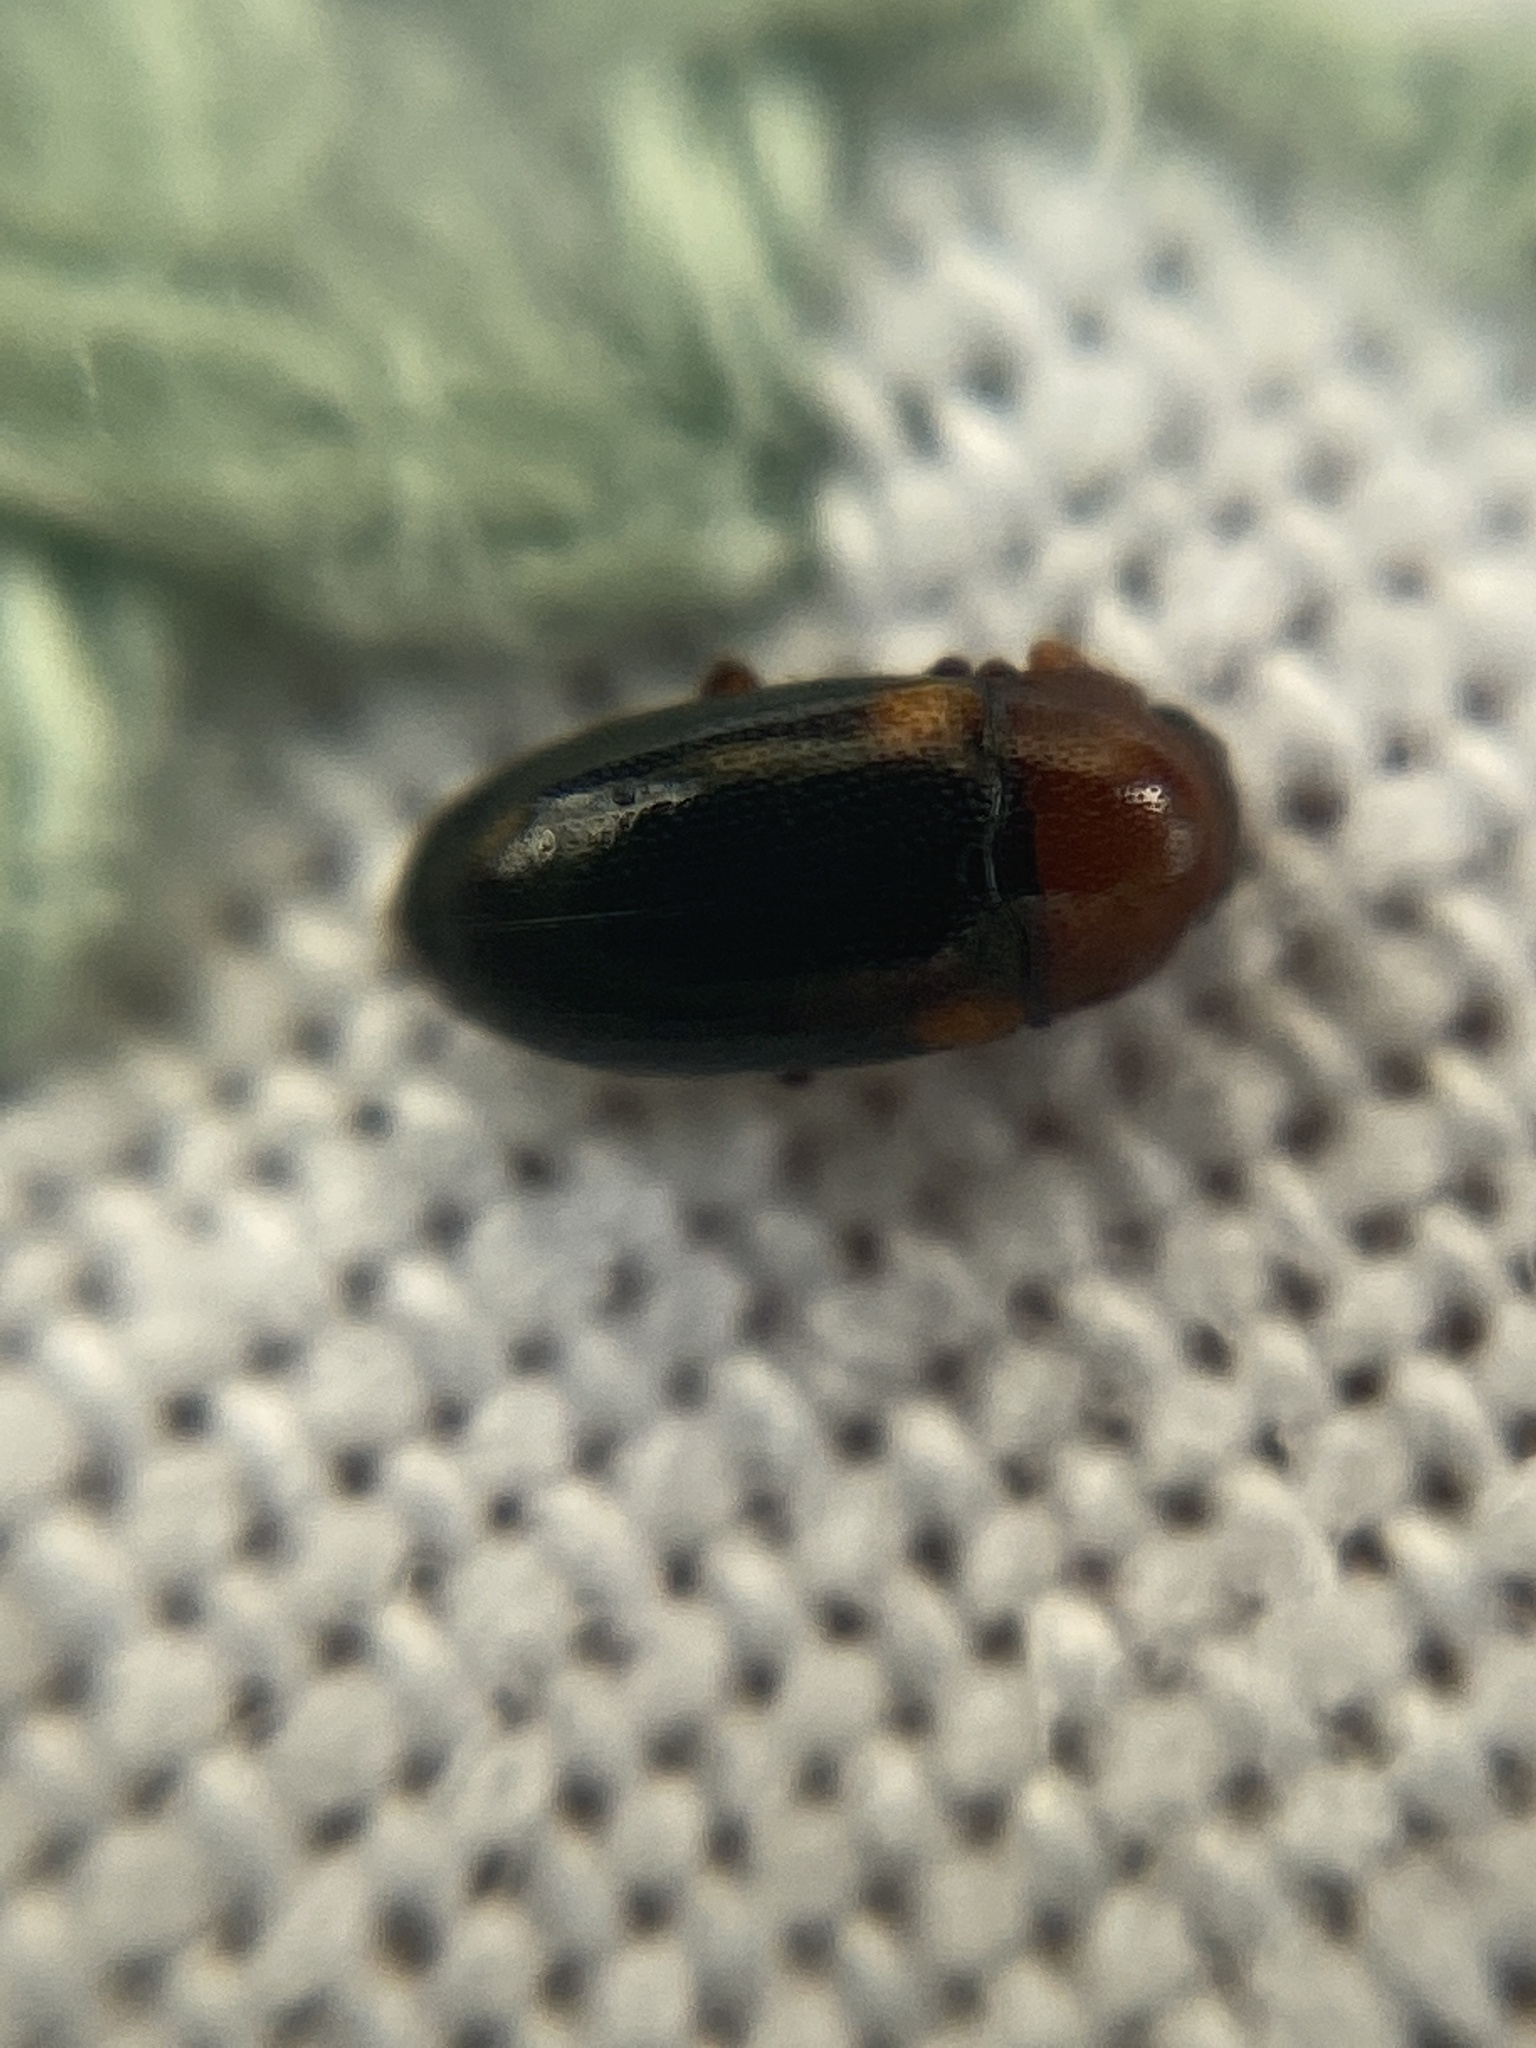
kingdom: Animalia
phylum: Arthropoda
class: Insecta
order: Coleoptera
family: Erotylidae
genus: Dacne
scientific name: Dacne bipustulata
